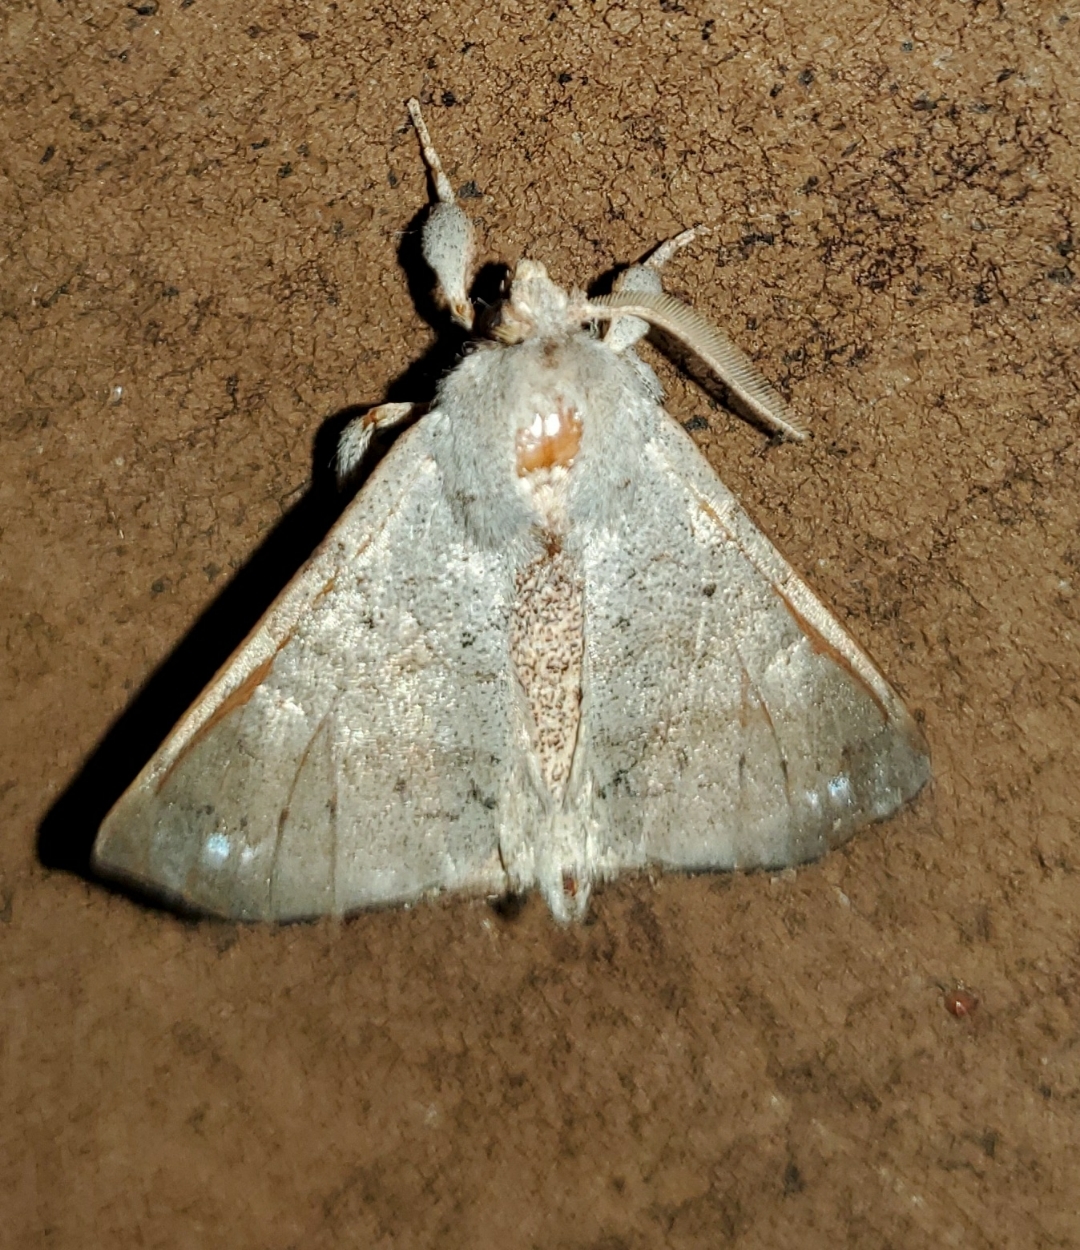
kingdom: Animalia
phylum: Arthropoda
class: Insecta
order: Lepidoptera
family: Apatelodidae
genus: Olceclostera
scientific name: Olceclostera angelica
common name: Angel moth
